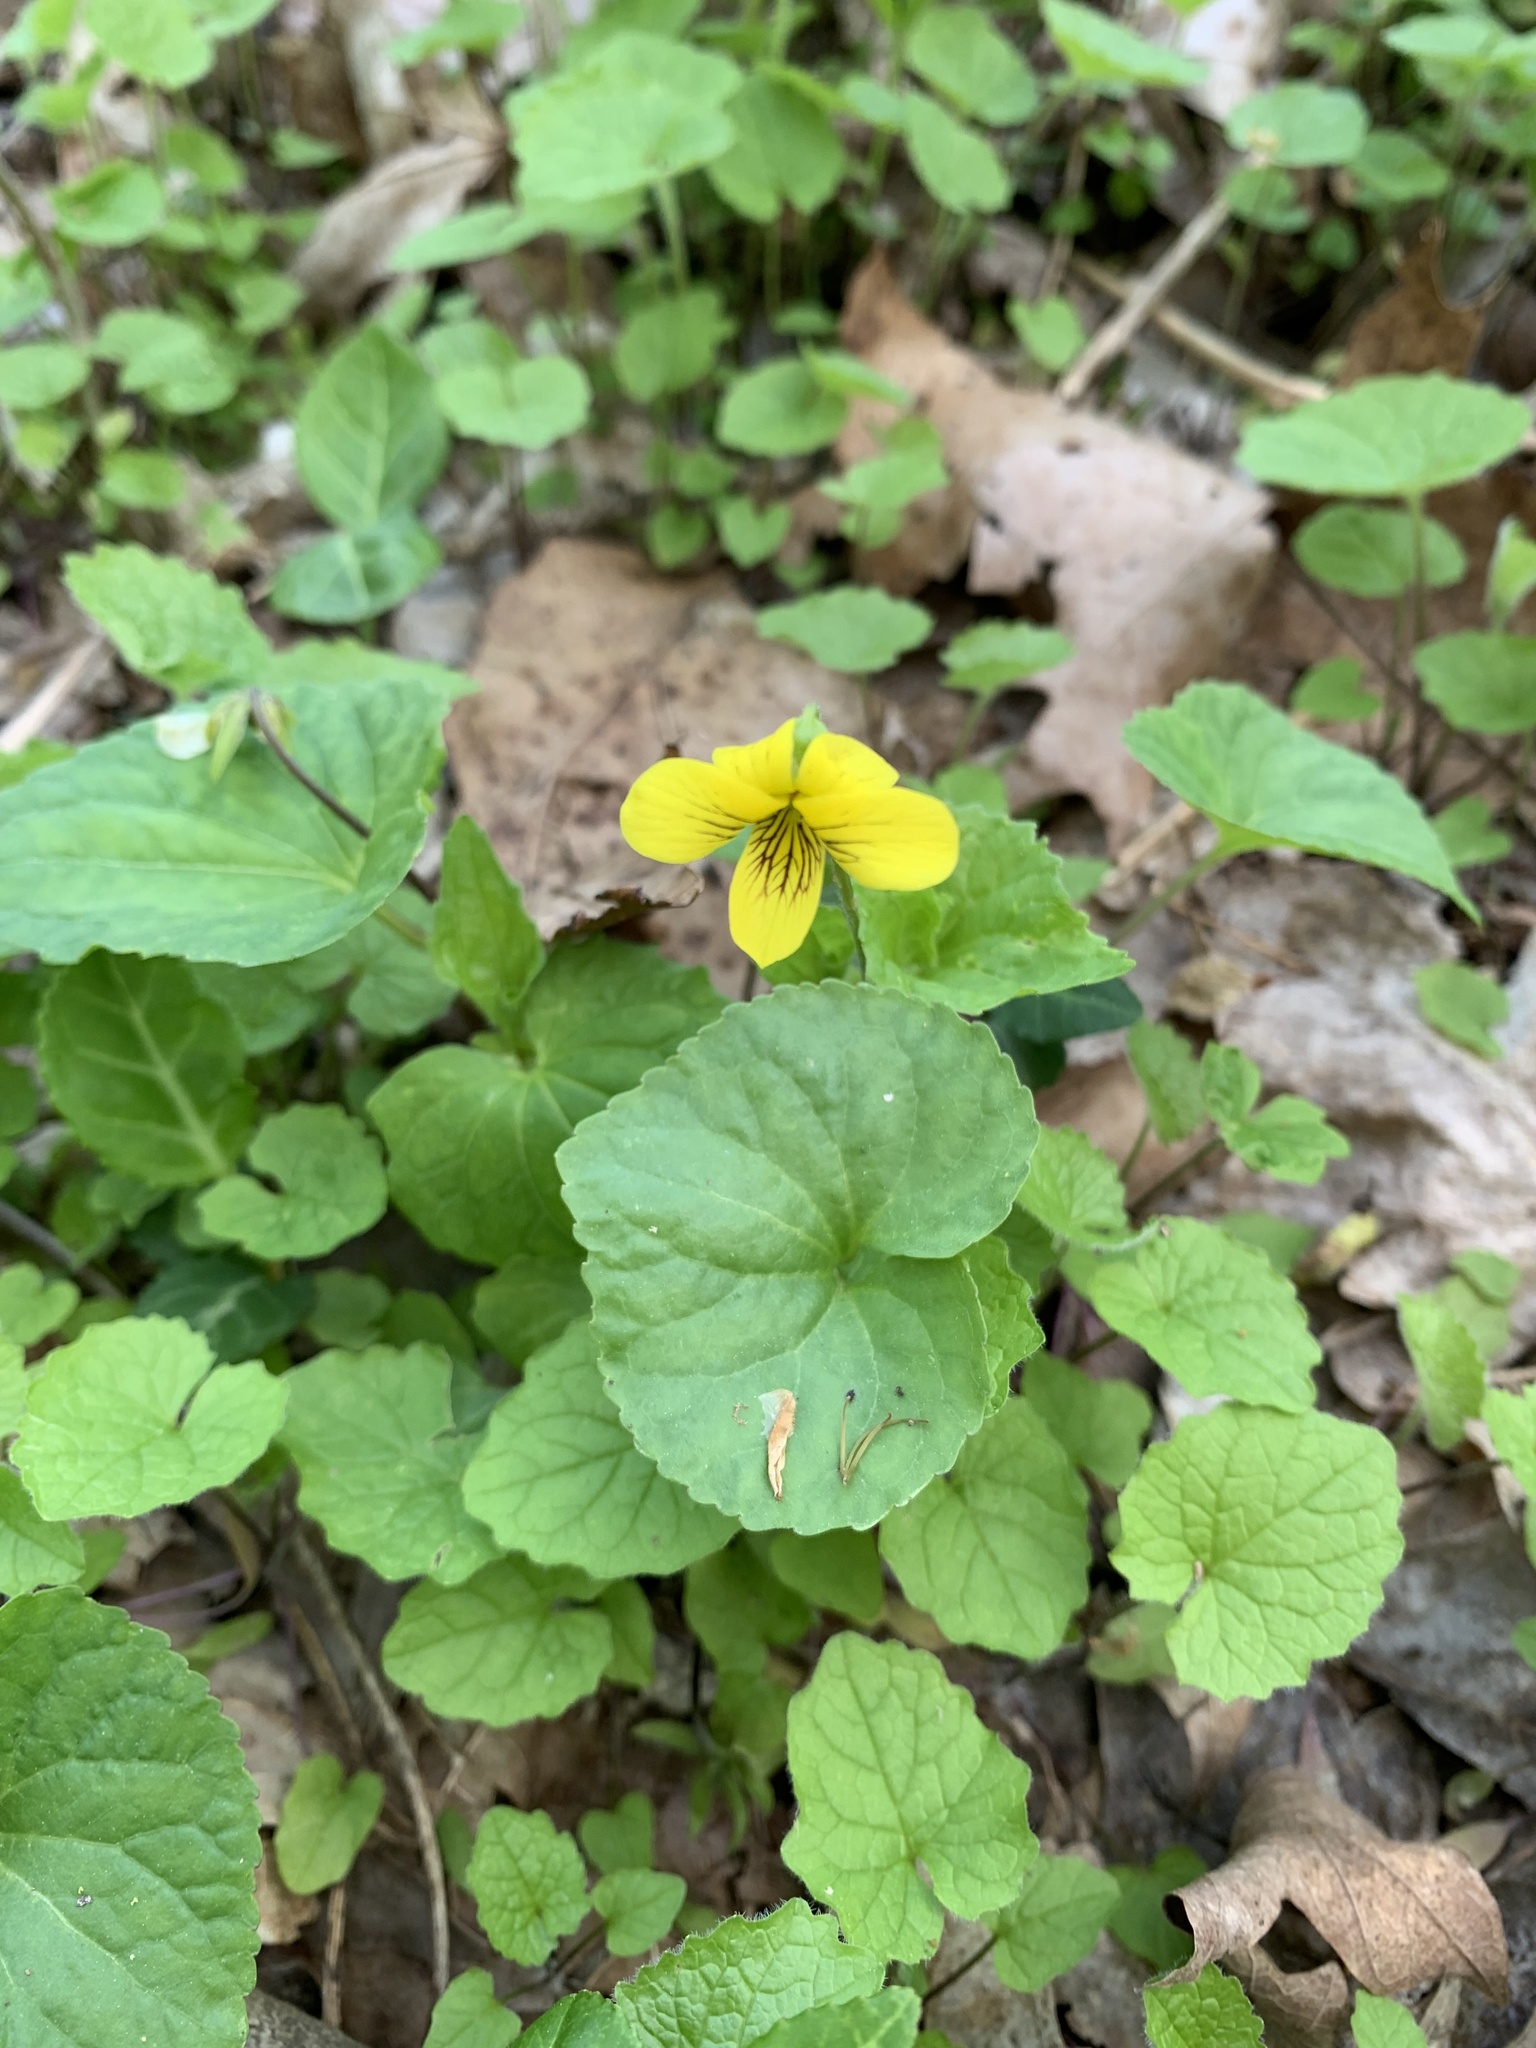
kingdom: Plantae
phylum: Tracheophyta
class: Magnoliopsida
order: Malpighiales
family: Violaceae
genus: Viola
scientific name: Viola eriocarpa
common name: Smooth yellow violet
